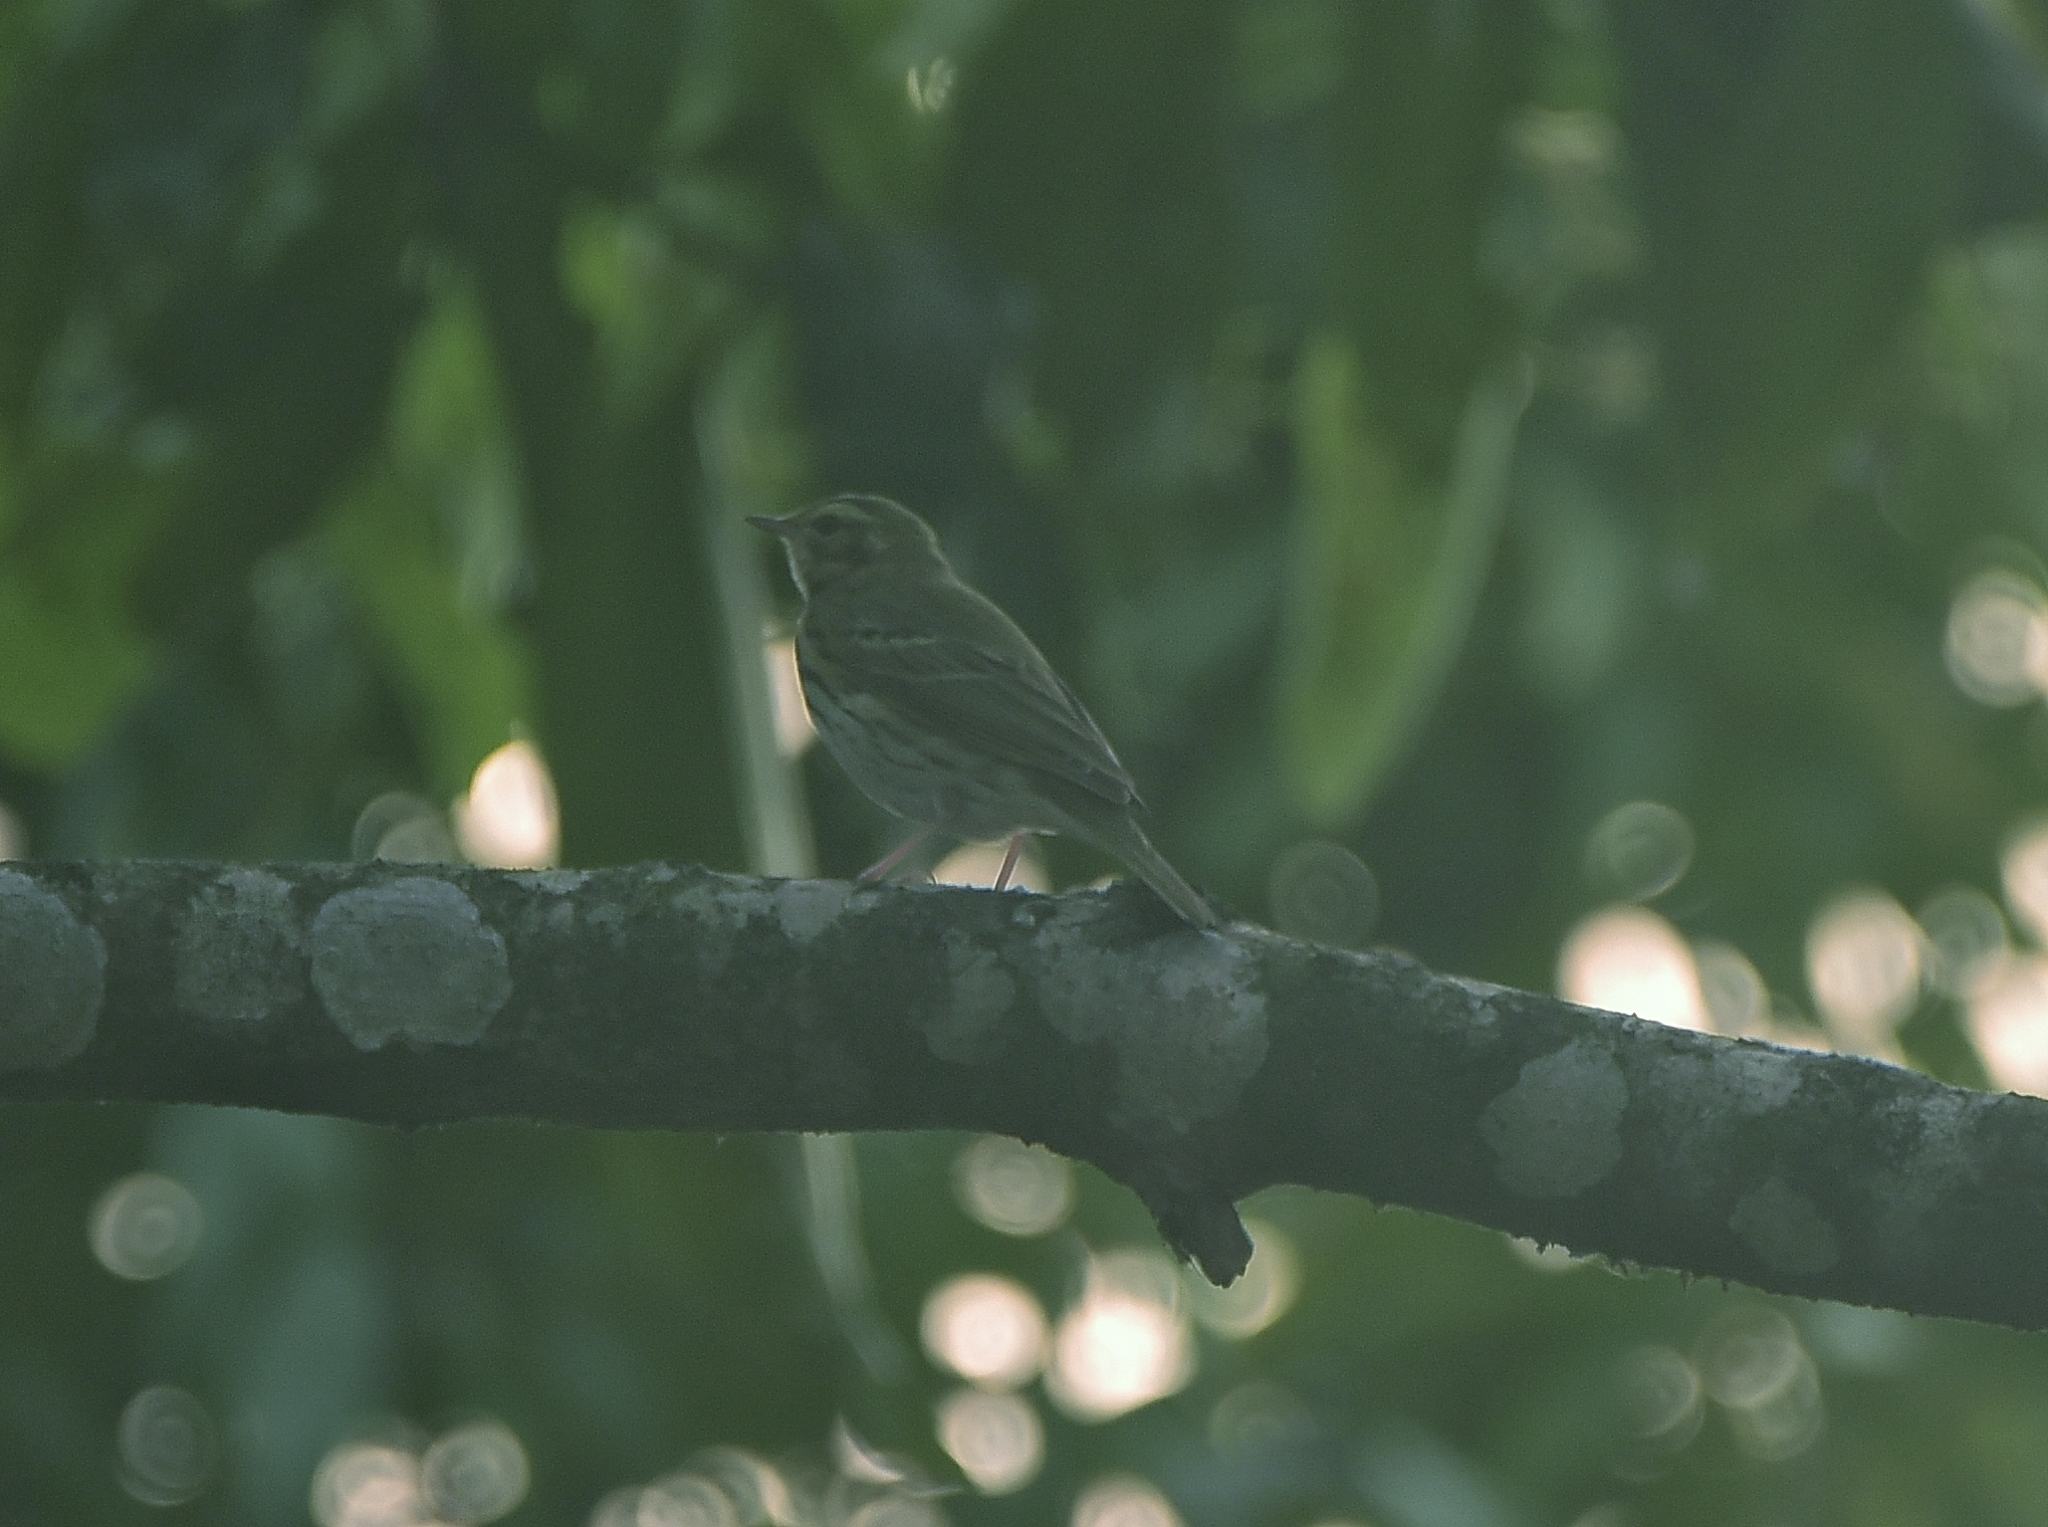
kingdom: Animalia
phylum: Chordata
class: Aves
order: Passeriformes
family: Motacillidae
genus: Anthus
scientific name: Anthus hodgsoni
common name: Olive-backed pipit
